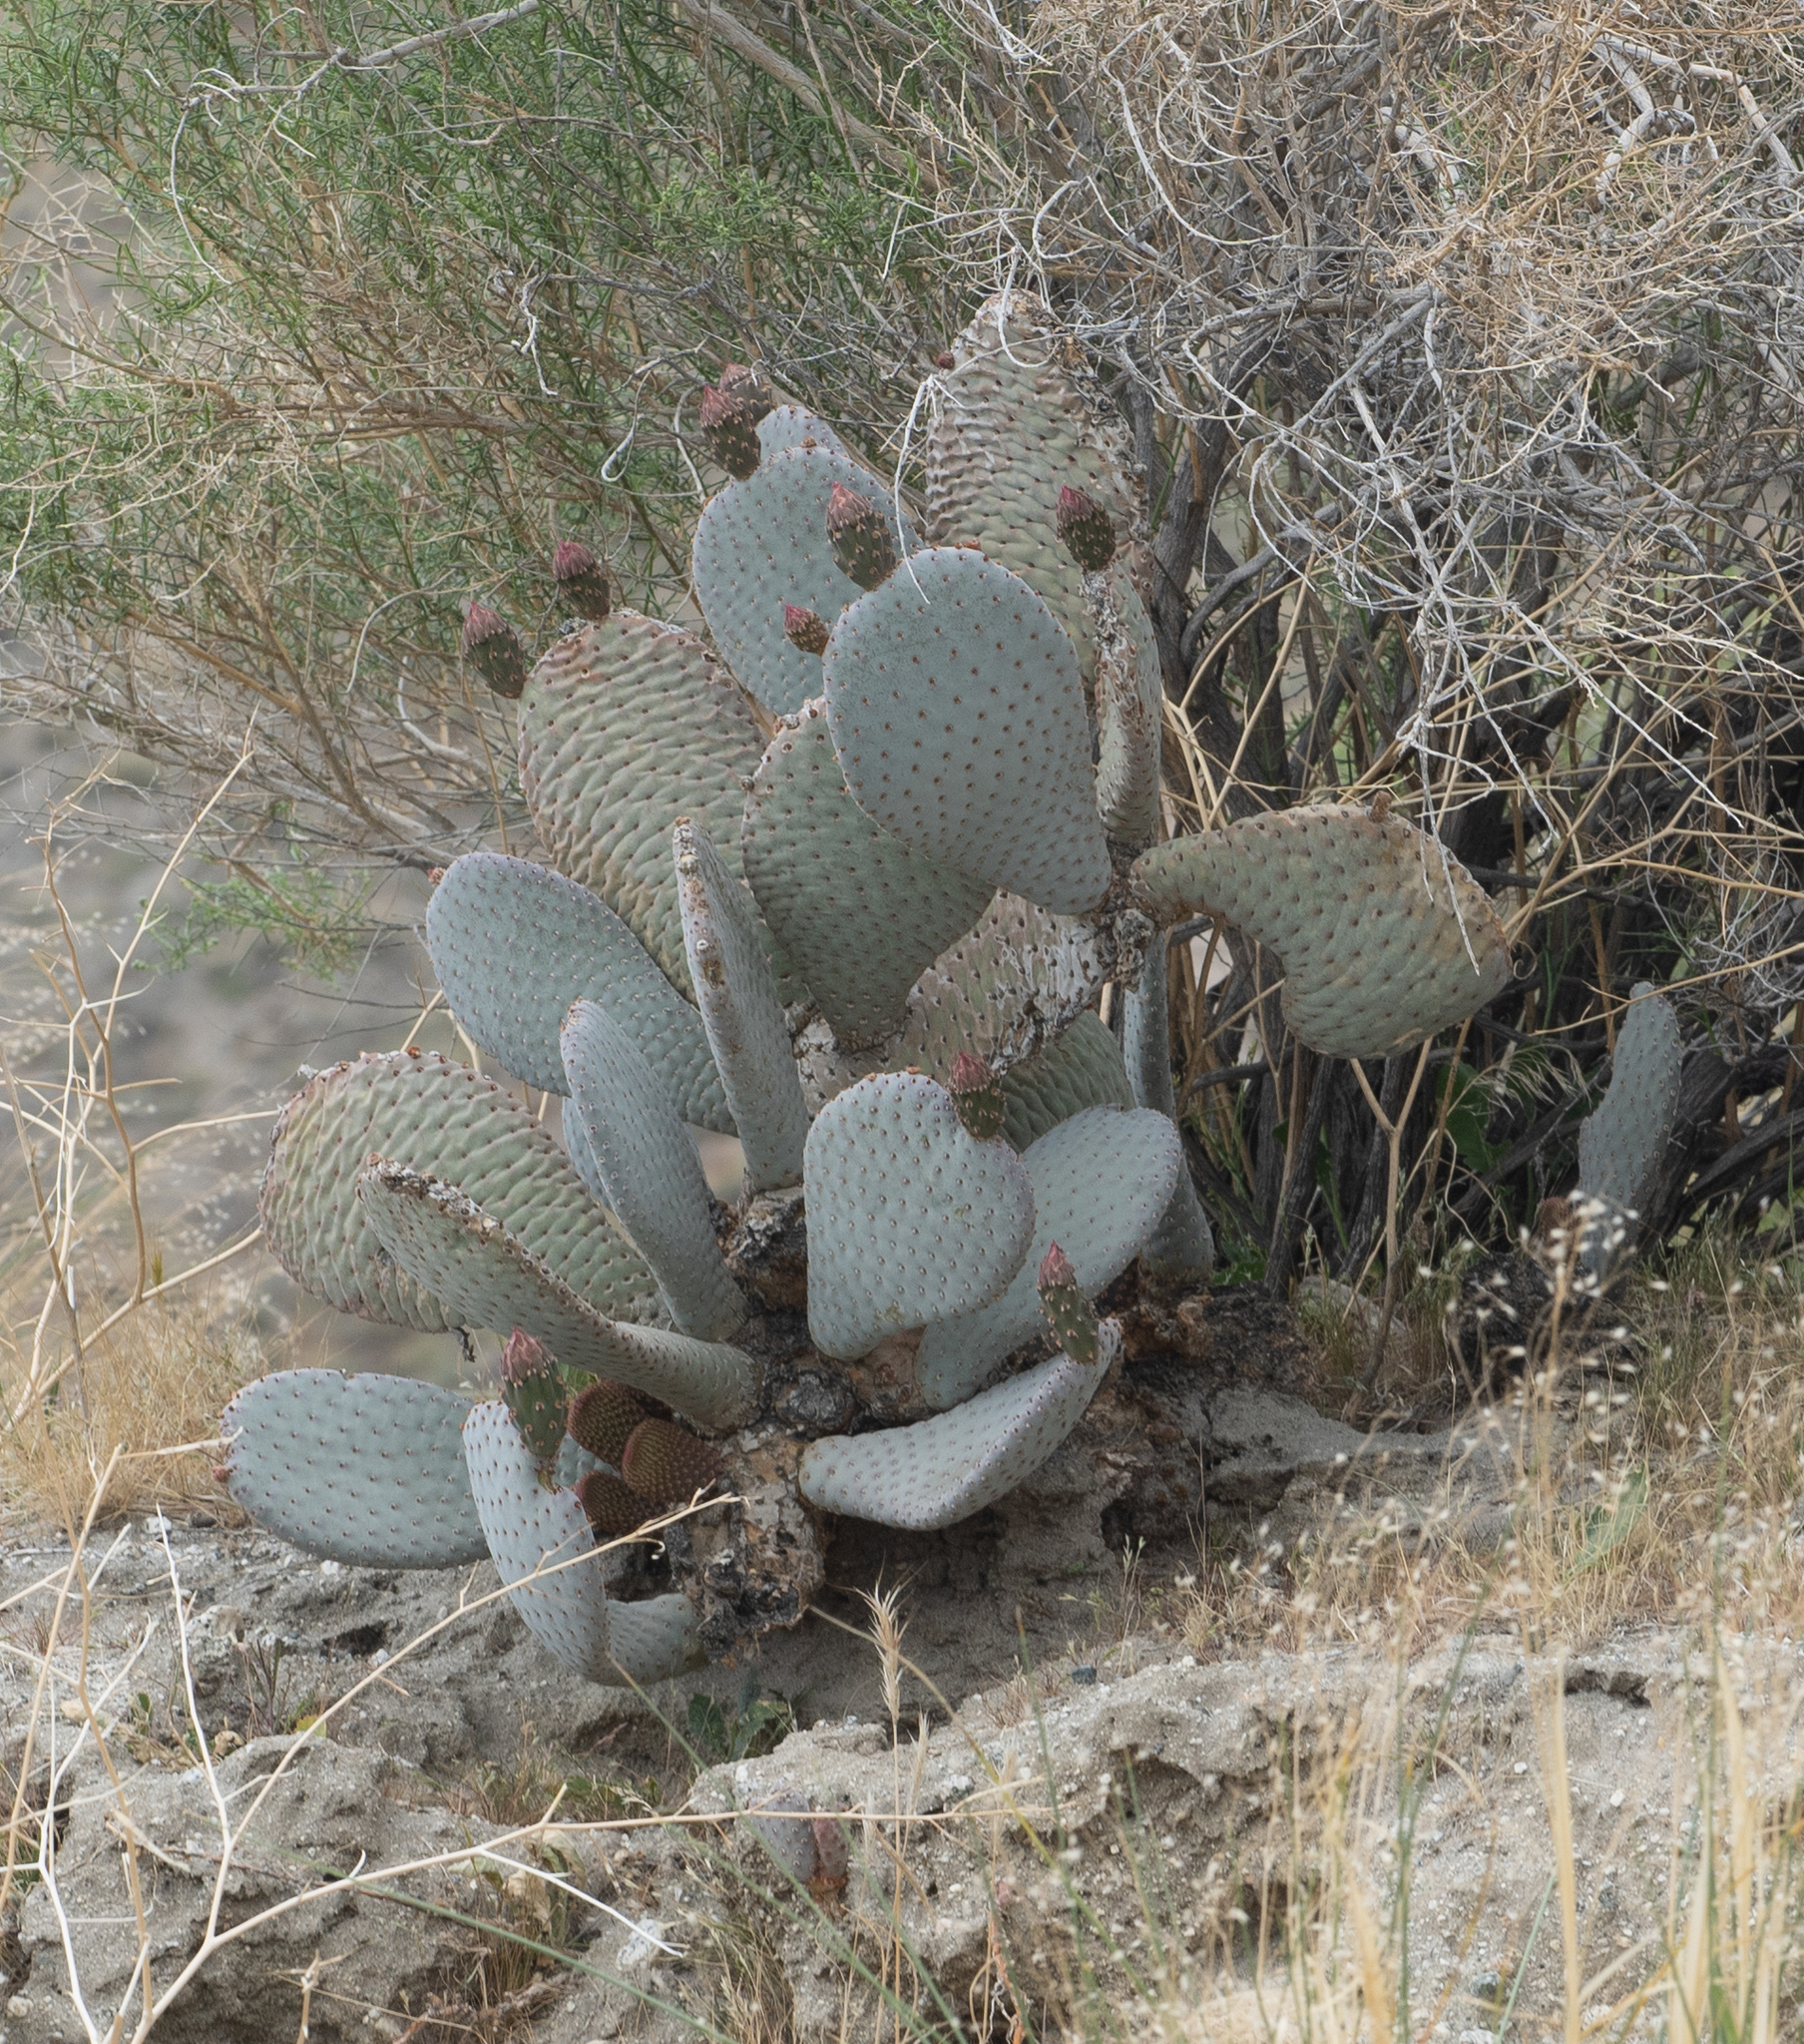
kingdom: Plantae
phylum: Tracheophyta
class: Magnoliopsida
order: Caryophyllales
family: Cactaceae
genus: Opuntia
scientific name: Opuntia basilaris
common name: Beavertail prickly-pear
